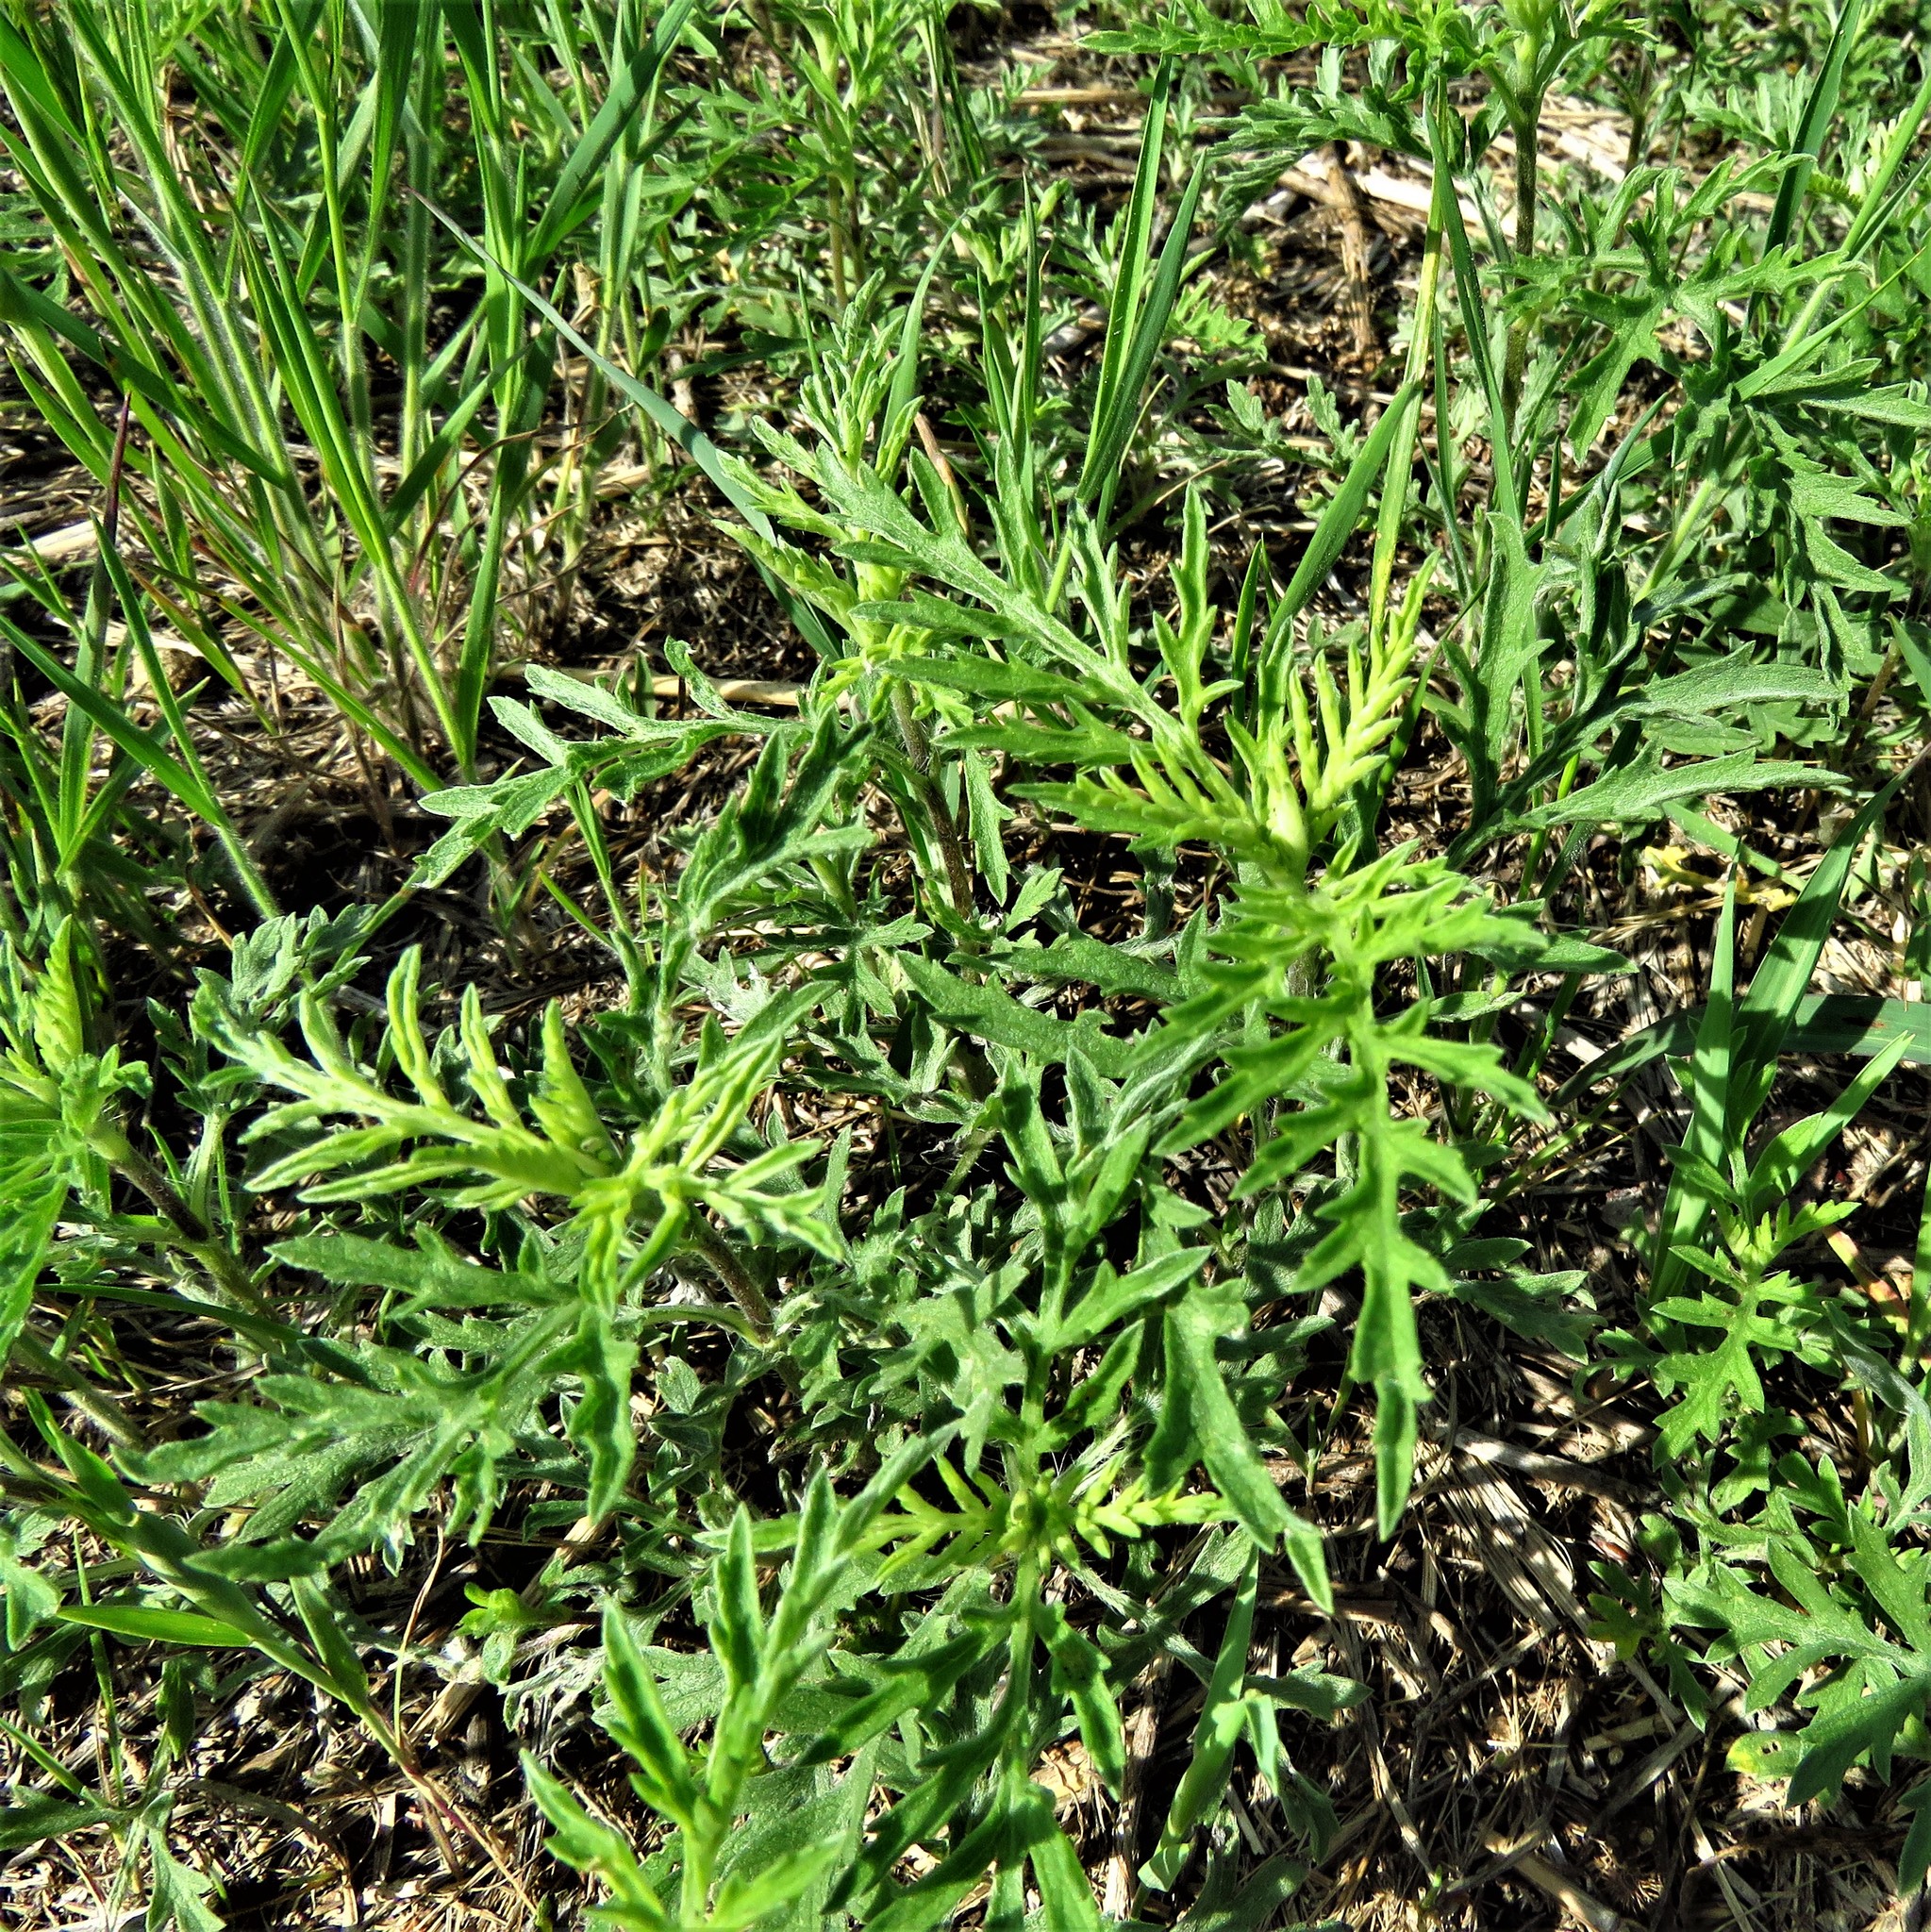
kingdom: Plantae
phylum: Tracheophyta
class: Magnoliopsida
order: Asterales
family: Asteraceae
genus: Ambrosia
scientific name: Ambrosia psilostachya
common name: Perennial ragweed
